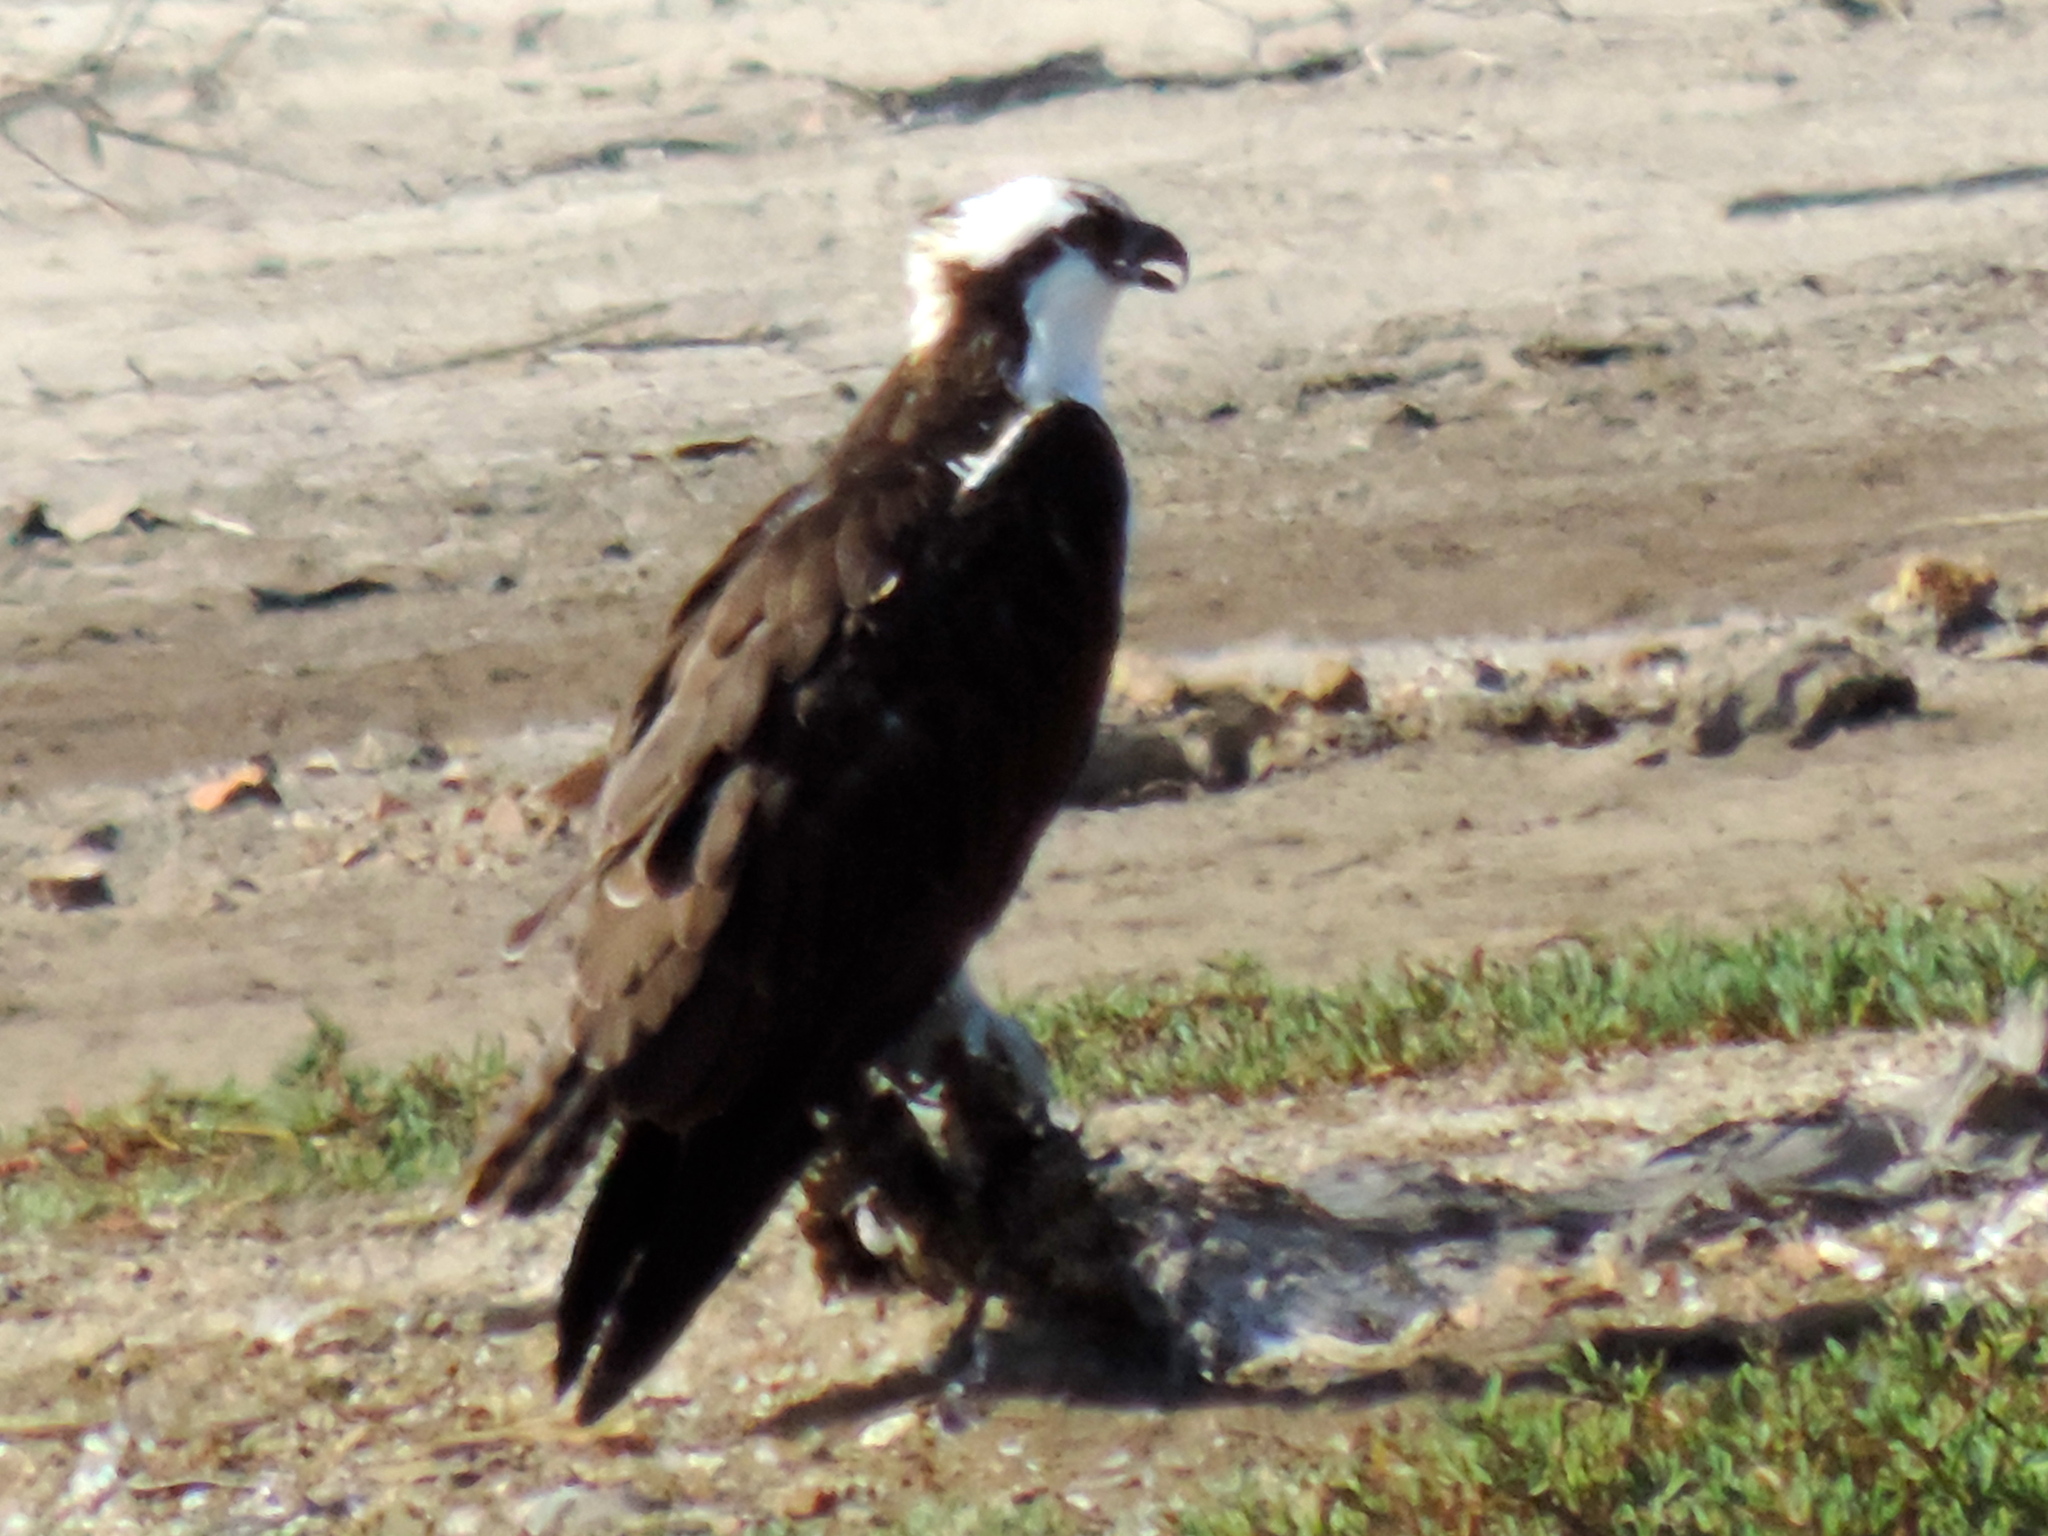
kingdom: Animalia
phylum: Chordata
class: Aves
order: Accipitriformes
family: Pandionidae
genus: Pandion
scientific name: Pandion haliaetus
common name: Osprey
